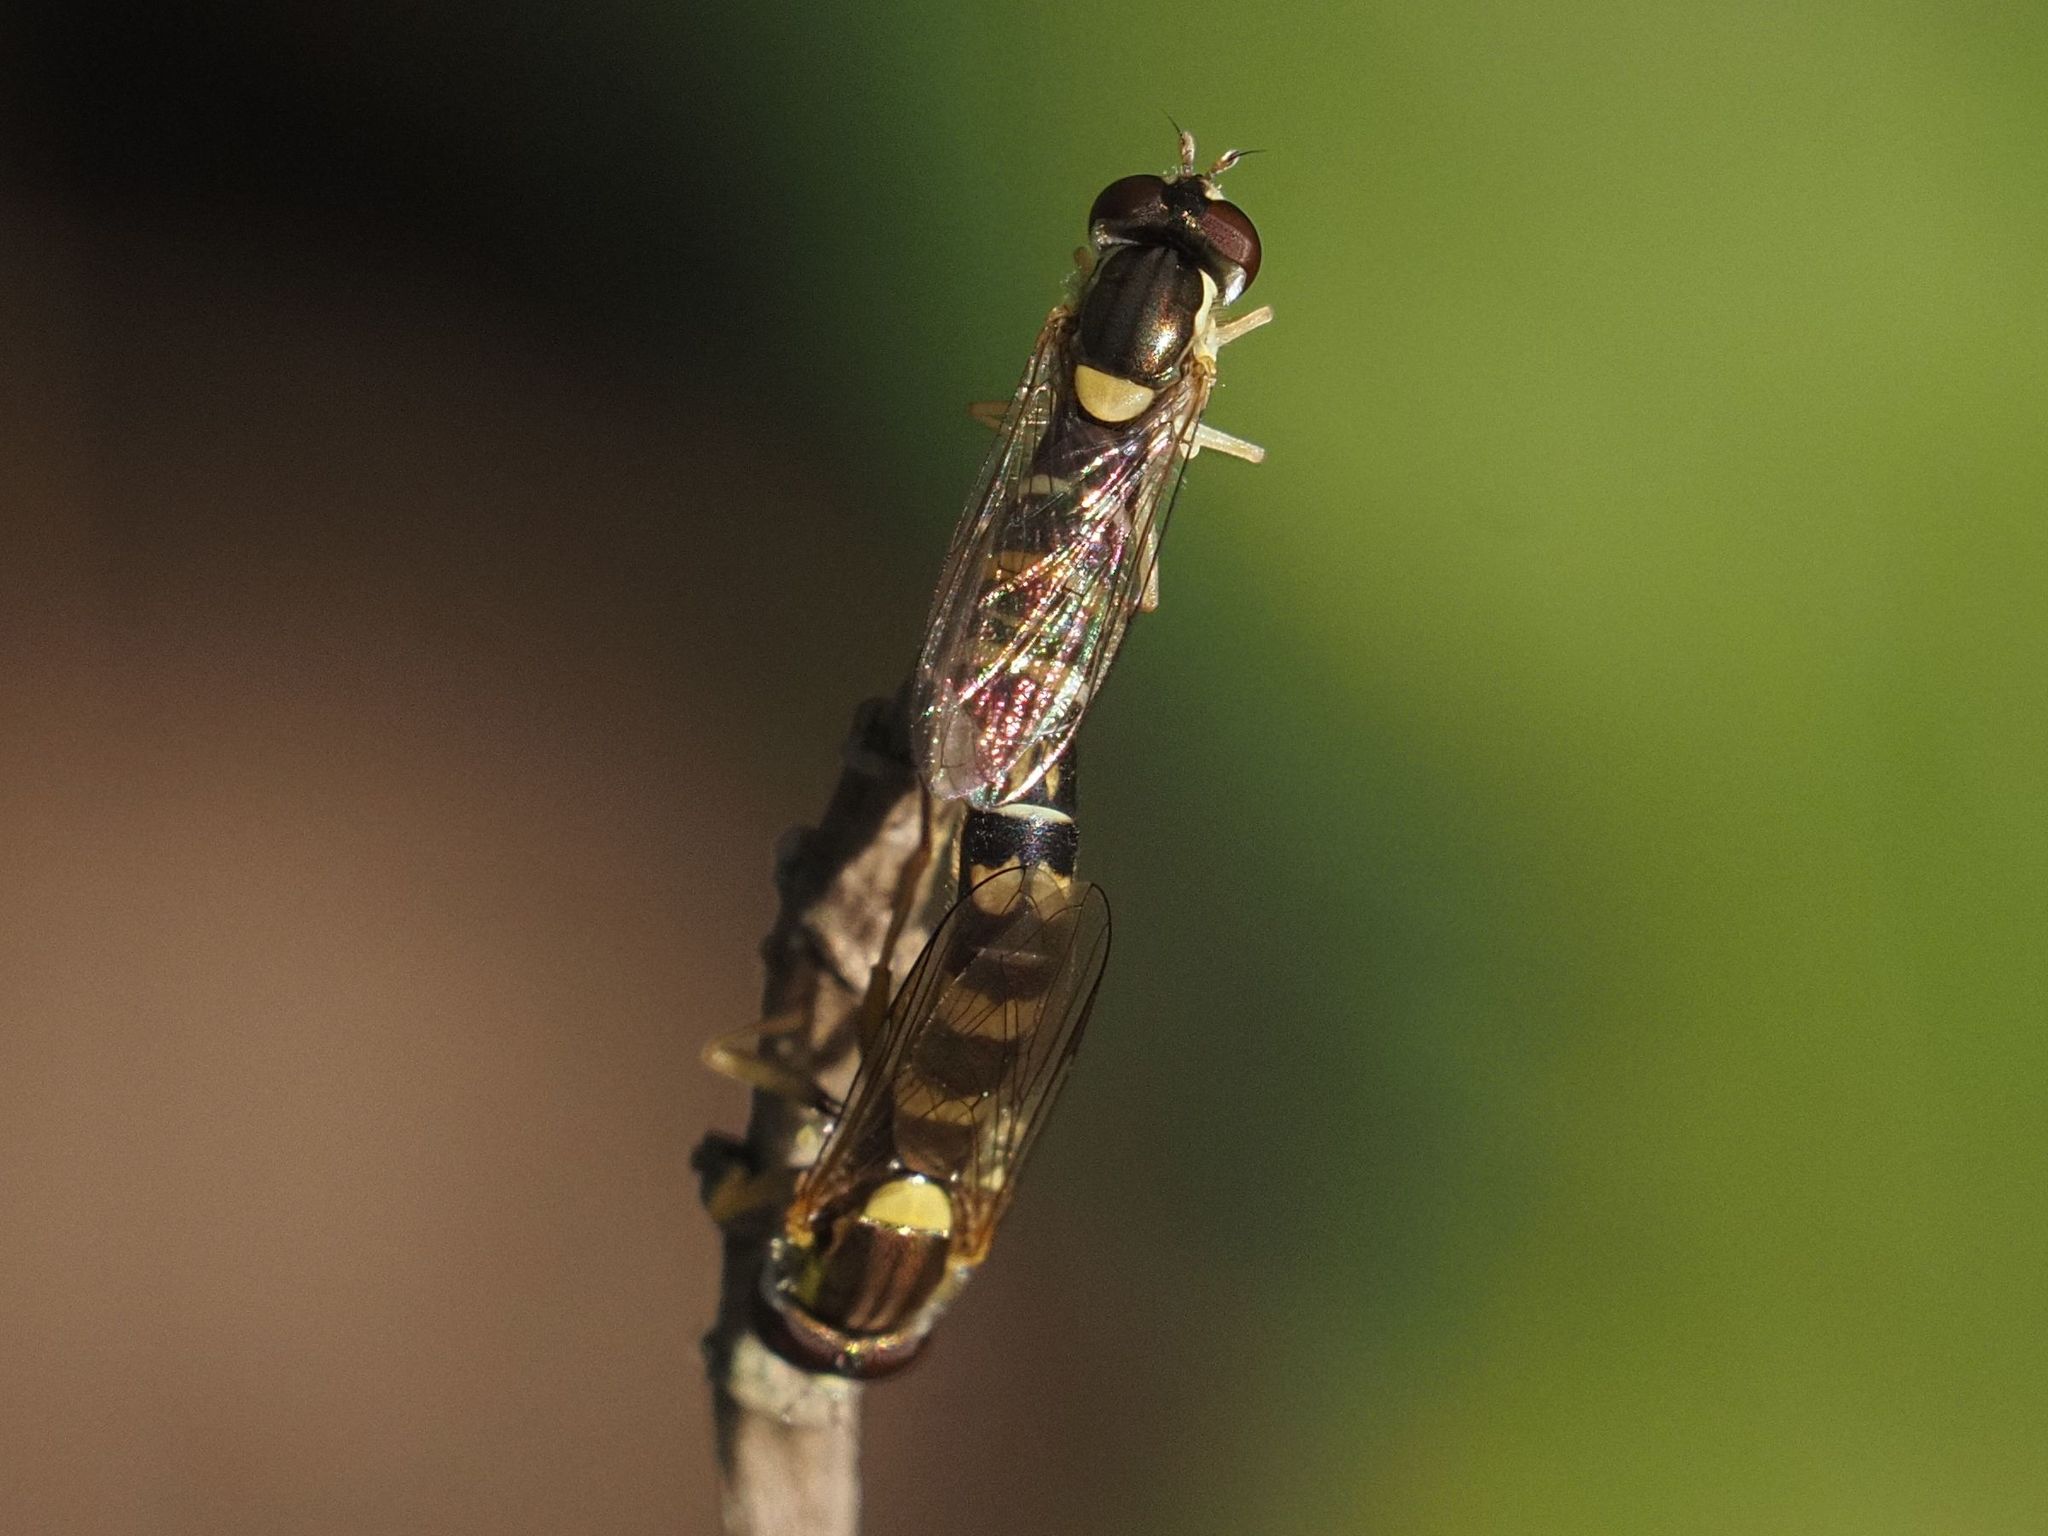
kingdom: Animalia
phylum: Arthropoda
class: Insecta
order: Diptera
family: Syrphidae
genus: Sphaerophoria
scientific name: Sphaerophoria scripta
